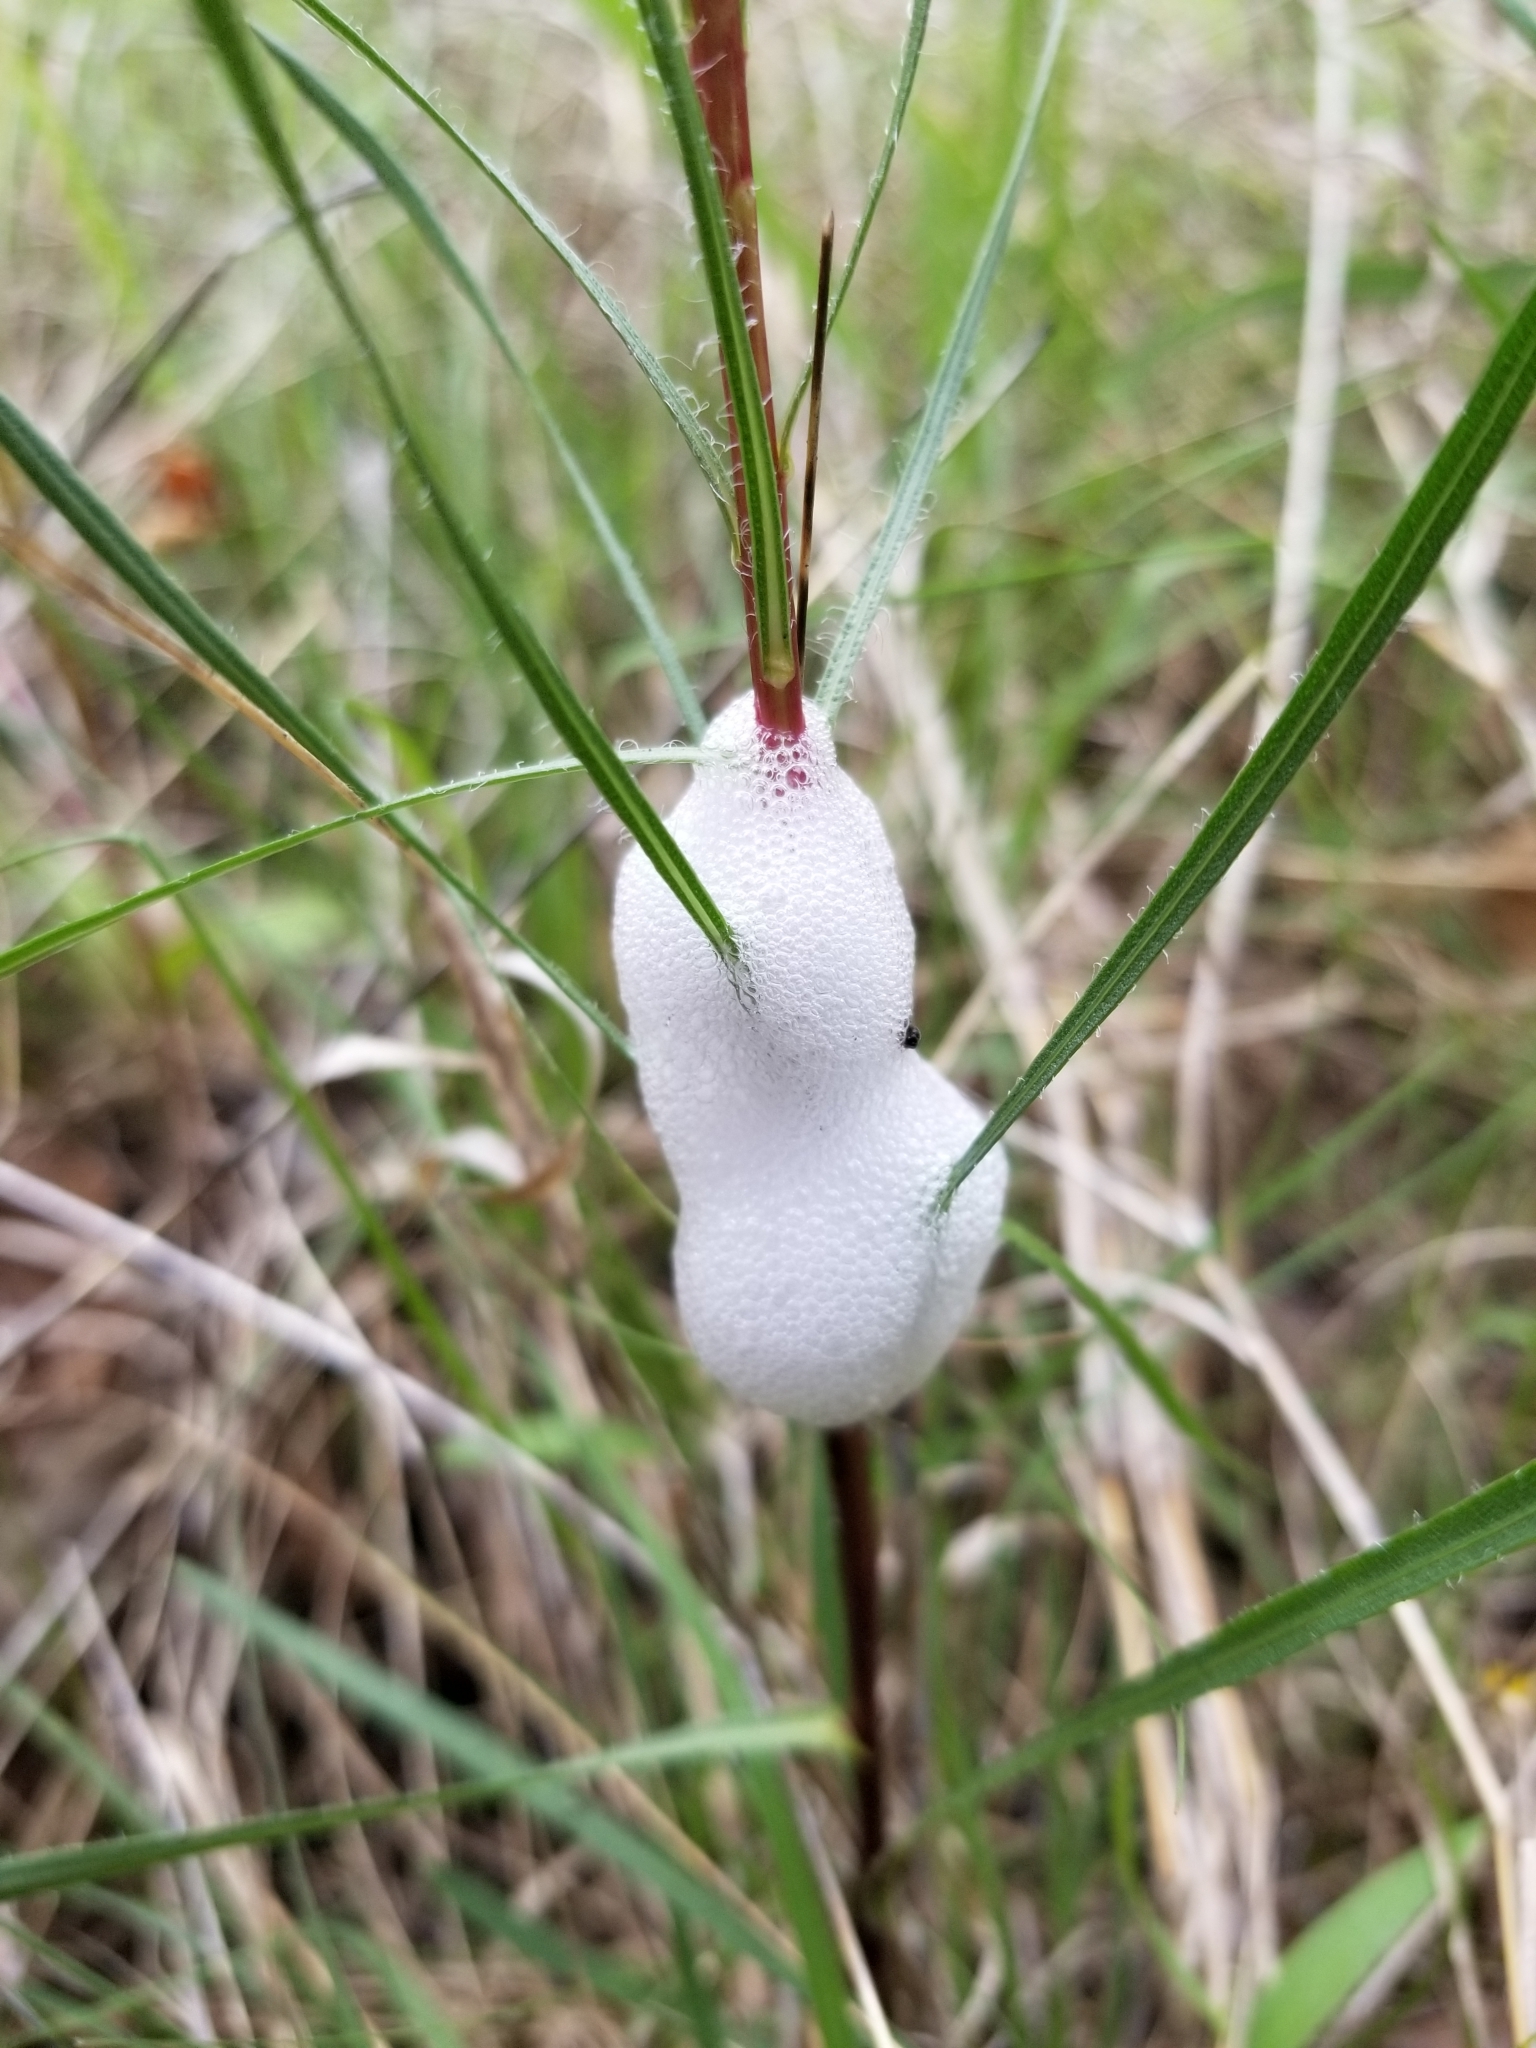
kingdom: Animalia
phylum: Arthropoda
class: Insecta
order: Hemiptera
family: Aphrophoridae
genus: Philaenus
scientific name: Philaenus spumarius
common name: Meadow spittlebug
